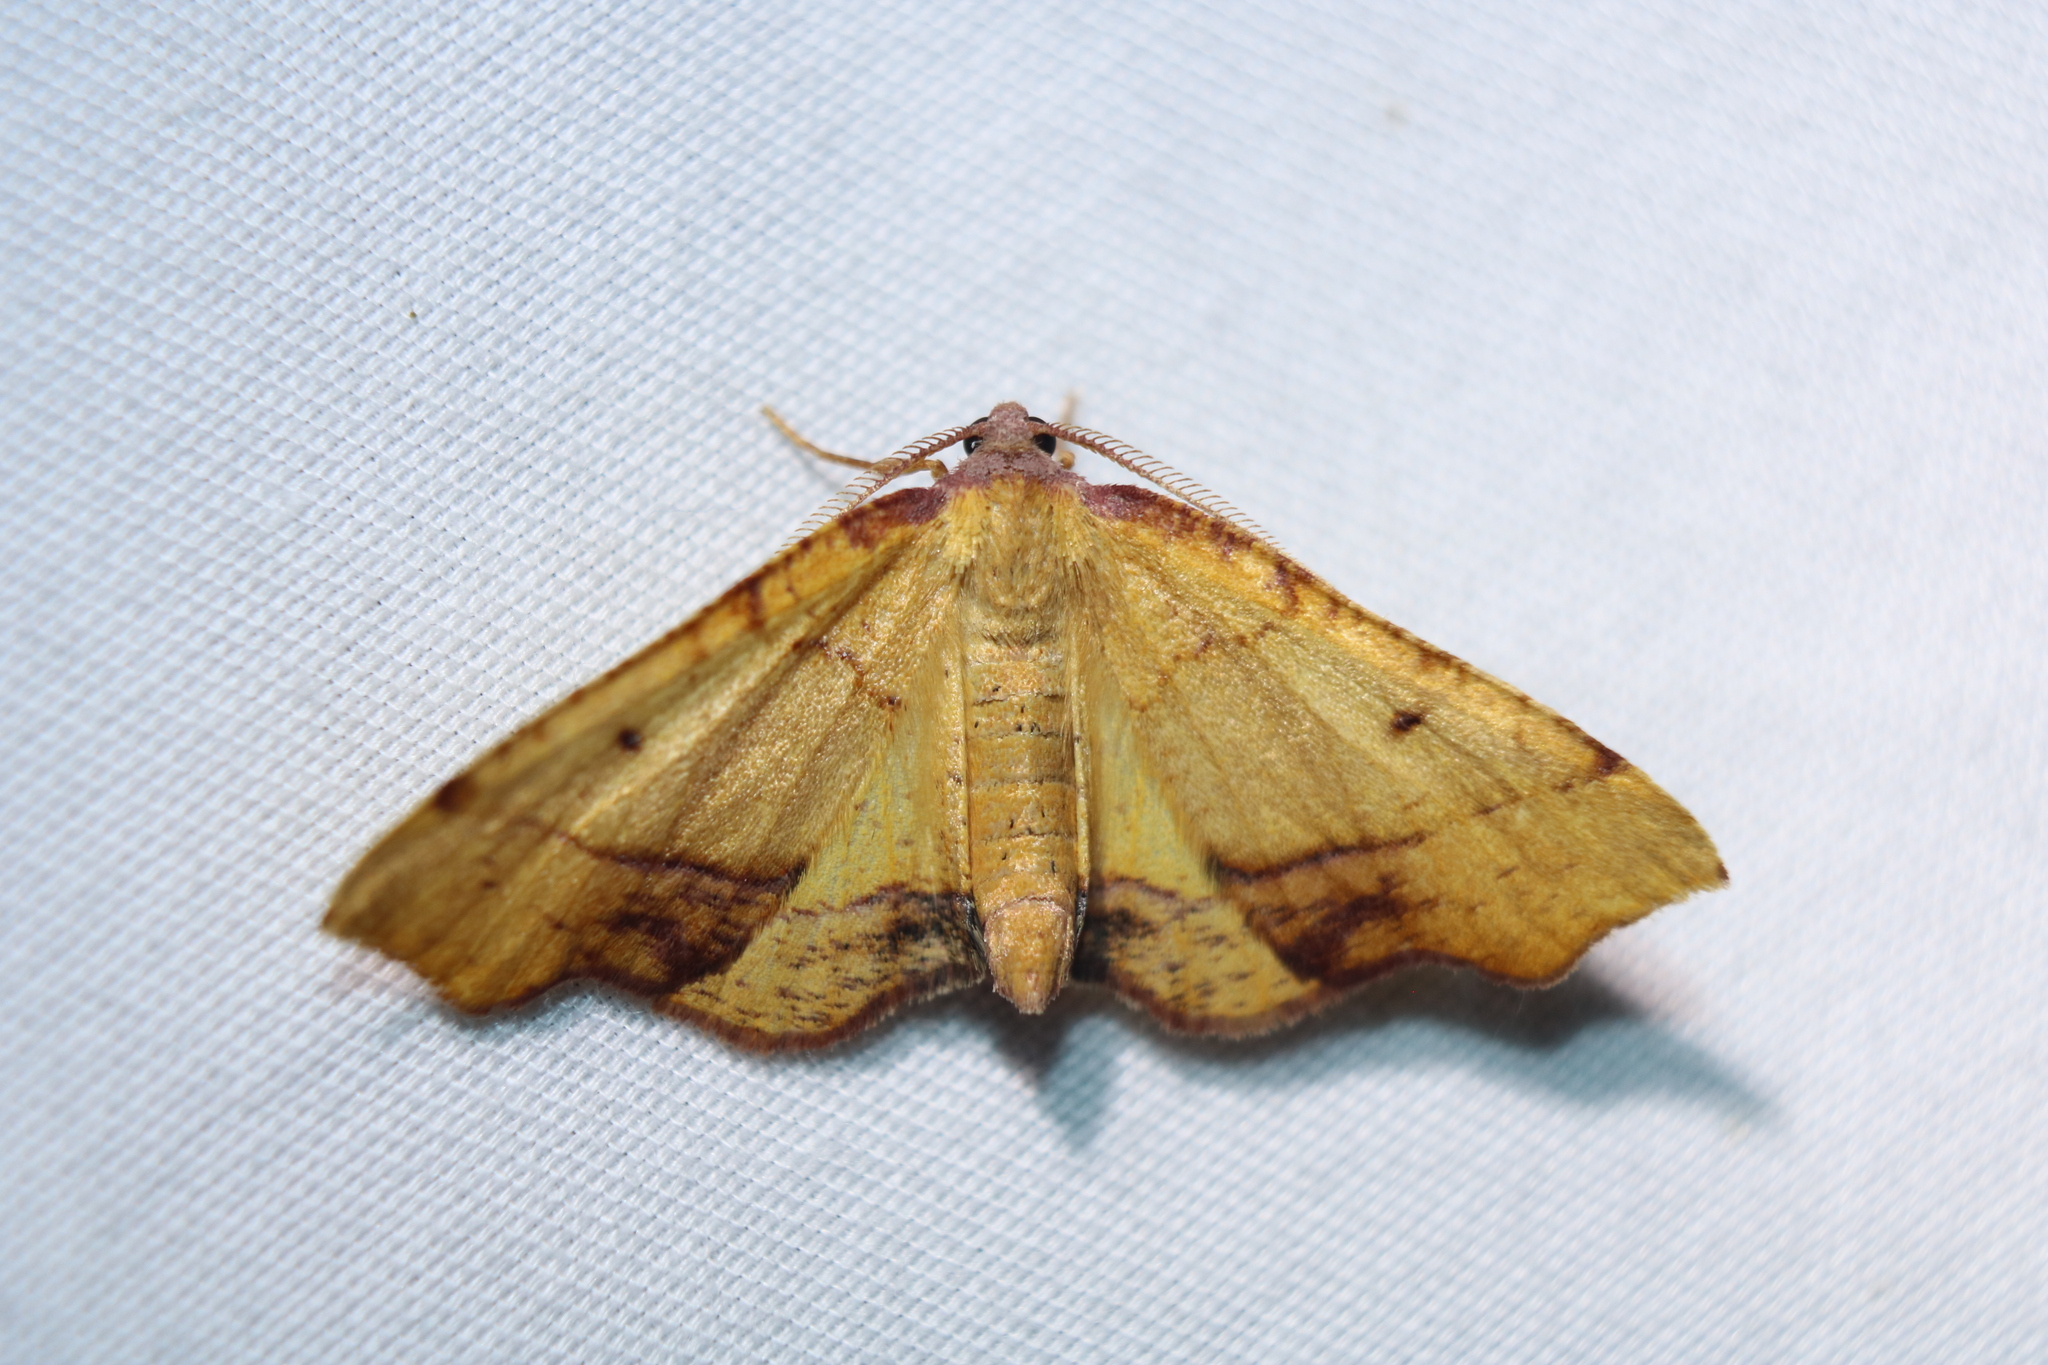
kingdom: Animalia
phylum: Arthropoda
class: Insecta
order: Lepidoptera
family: Geometridae
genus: Plagodis
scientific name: Plagodis phlogosaria
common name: Straight-lined plagodis
